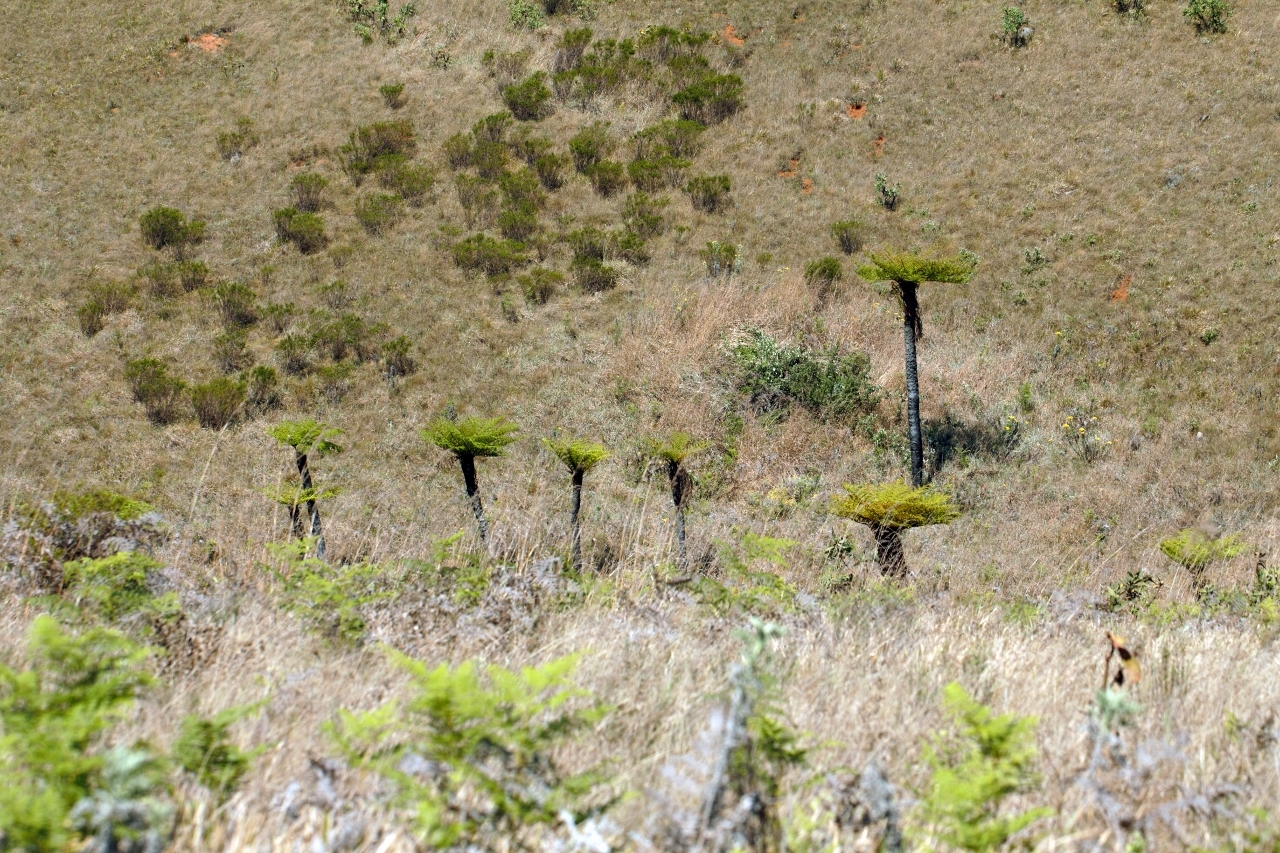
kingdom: Plantae
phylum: Tracheophyta
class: Polypodiopsida
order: Cyatheales
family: Cyatheaceae
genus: Alsophila
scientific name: Alsophila dregei
